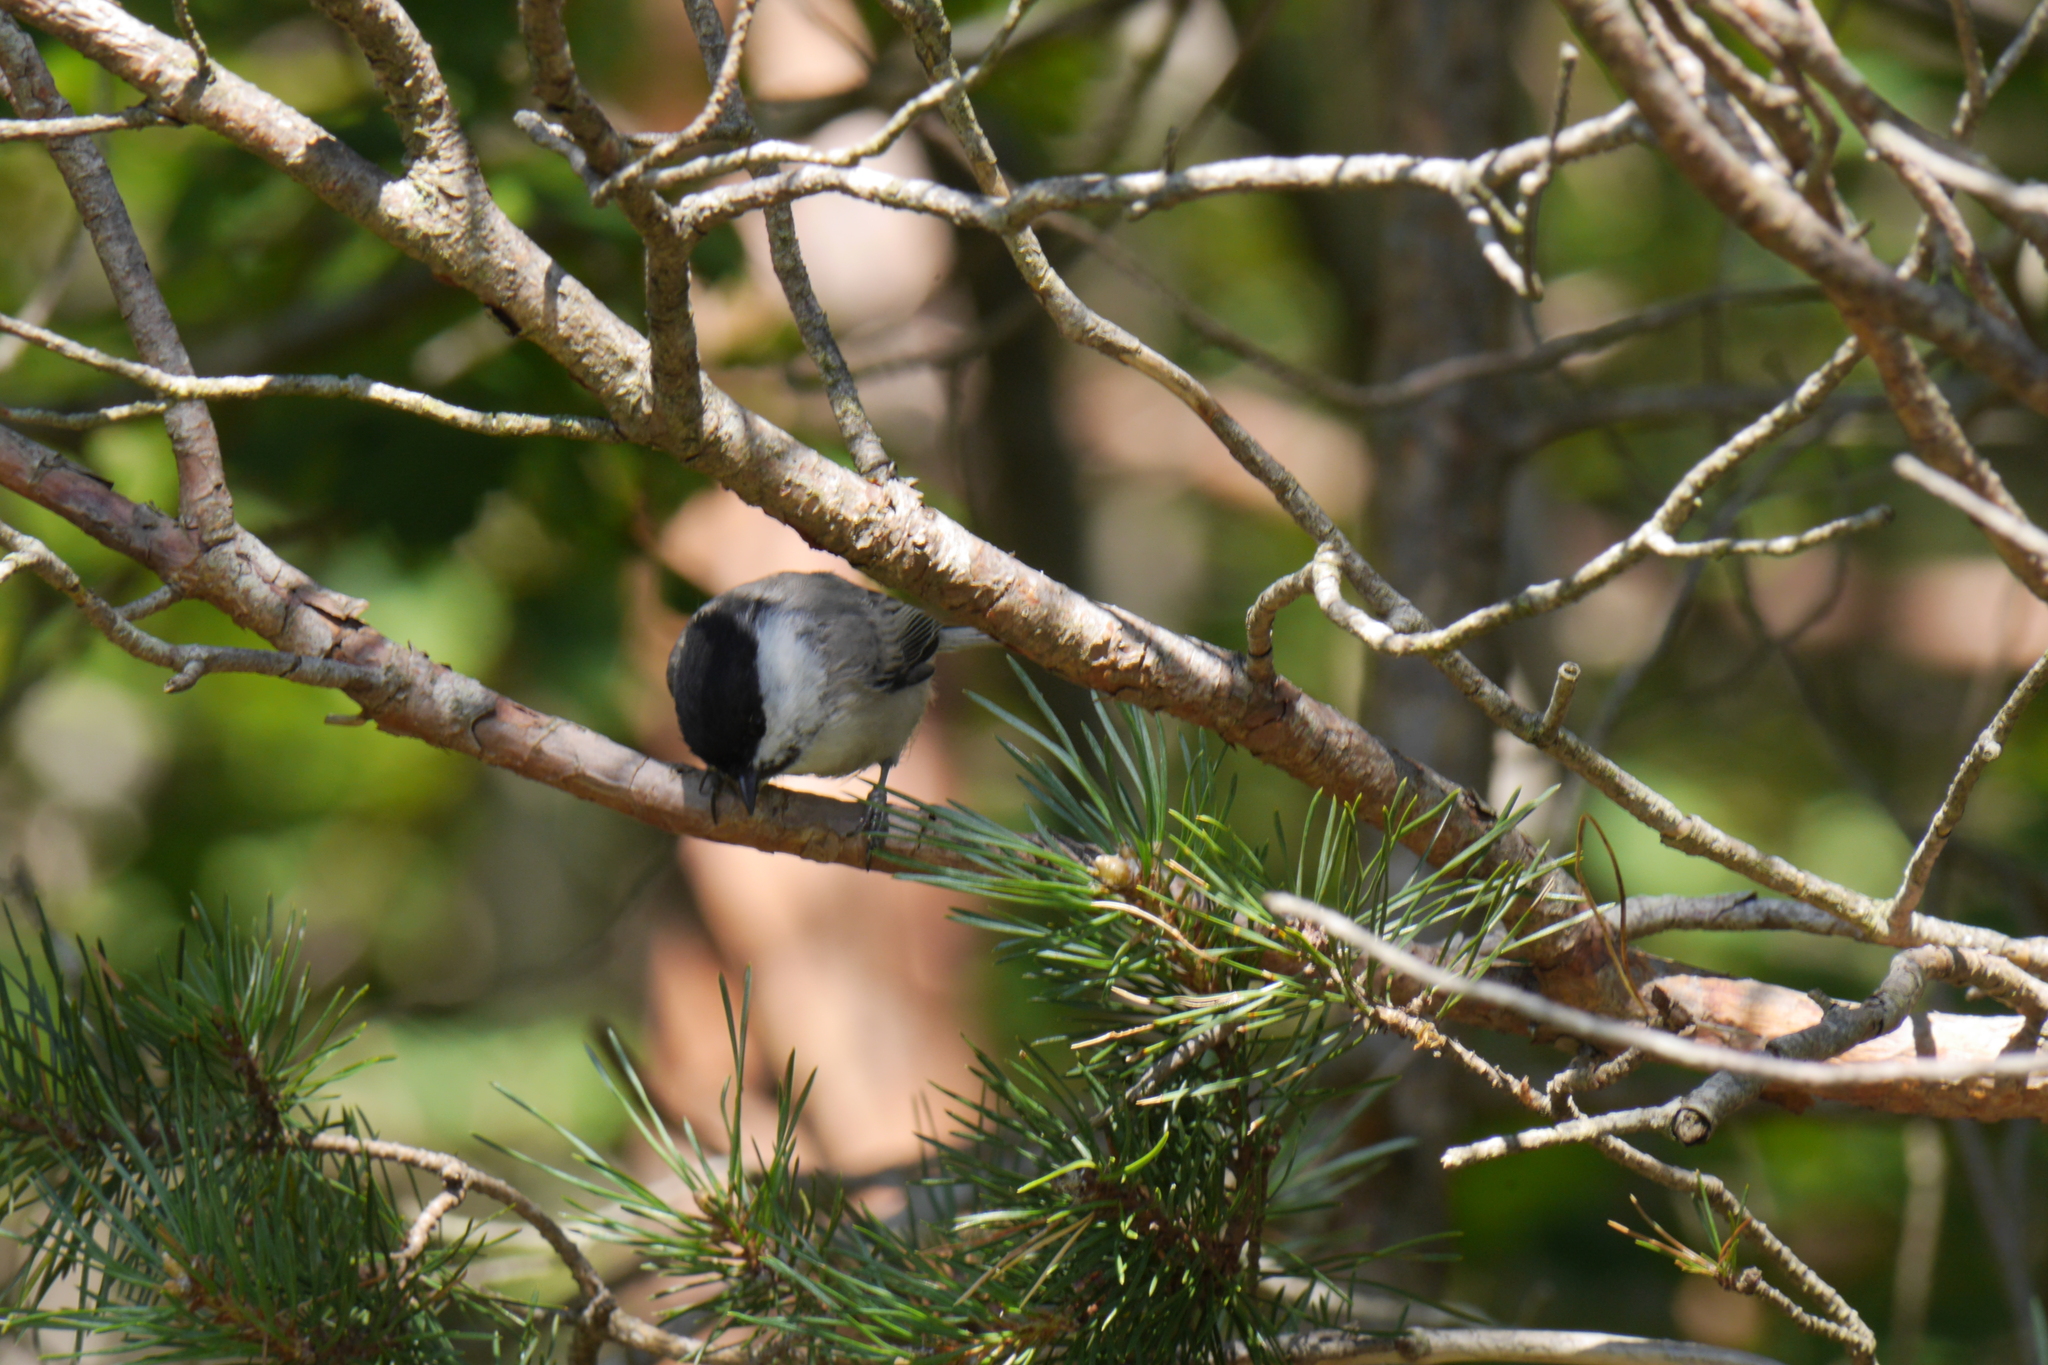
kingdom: Animalia
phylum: Chordata
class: Aves
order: Passeriformes
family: Paridae
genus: Poecile
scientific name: Poecile montanus
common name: Willow tit
